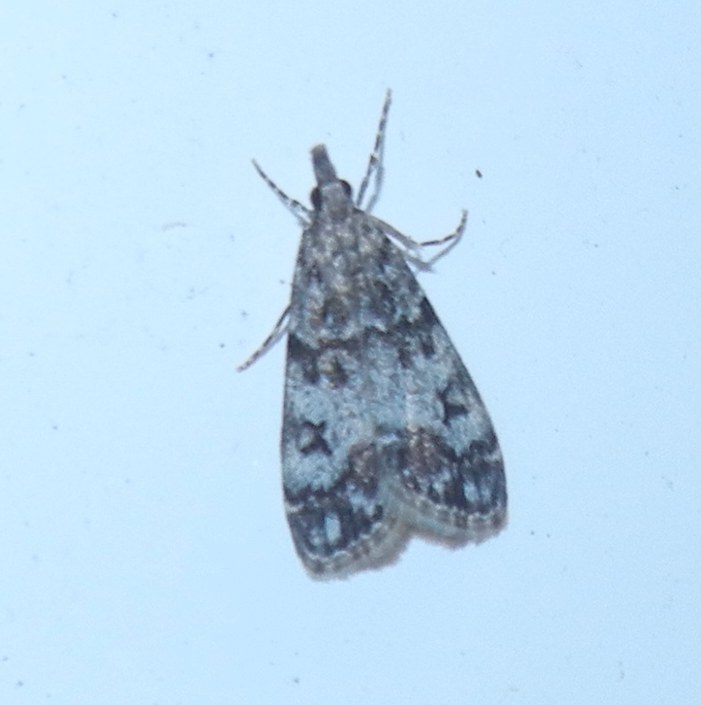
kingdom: Animalia
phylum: Arthropoda
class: Insecta
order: Lepidoptera
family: Crambidae
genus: Eudonia
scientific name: Eudonia lacustrata
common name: Little grey
